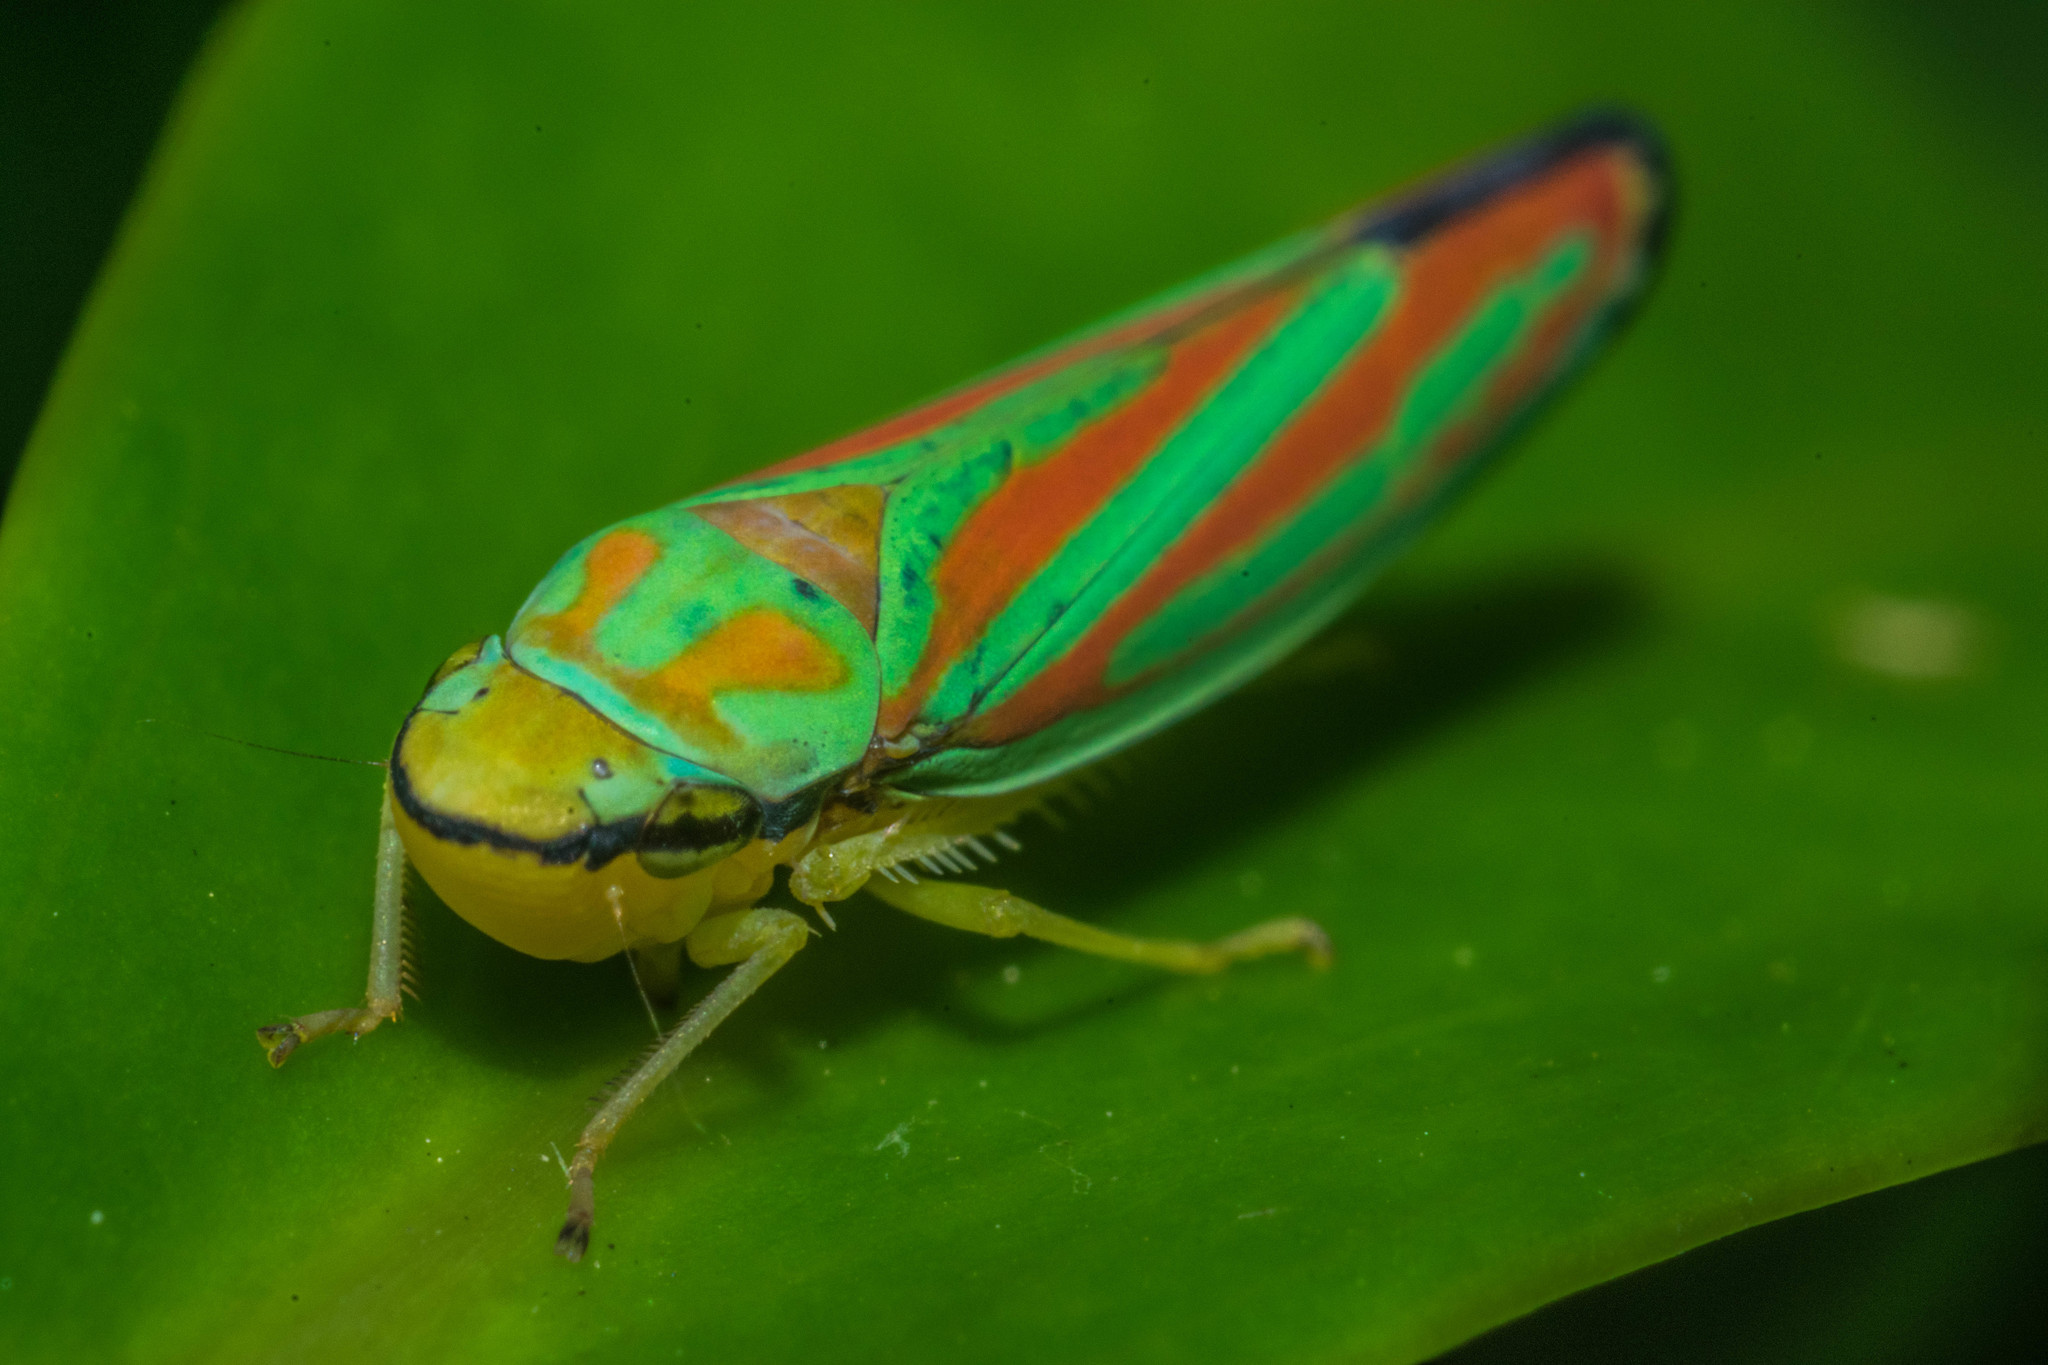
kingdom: Animalia
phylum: Arthropoda
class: Insecta
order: Hemiptera
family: Cicadellidae
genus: Graphocephala
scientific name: Graphocephala coccinea
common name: Candy-striped leafhopper
